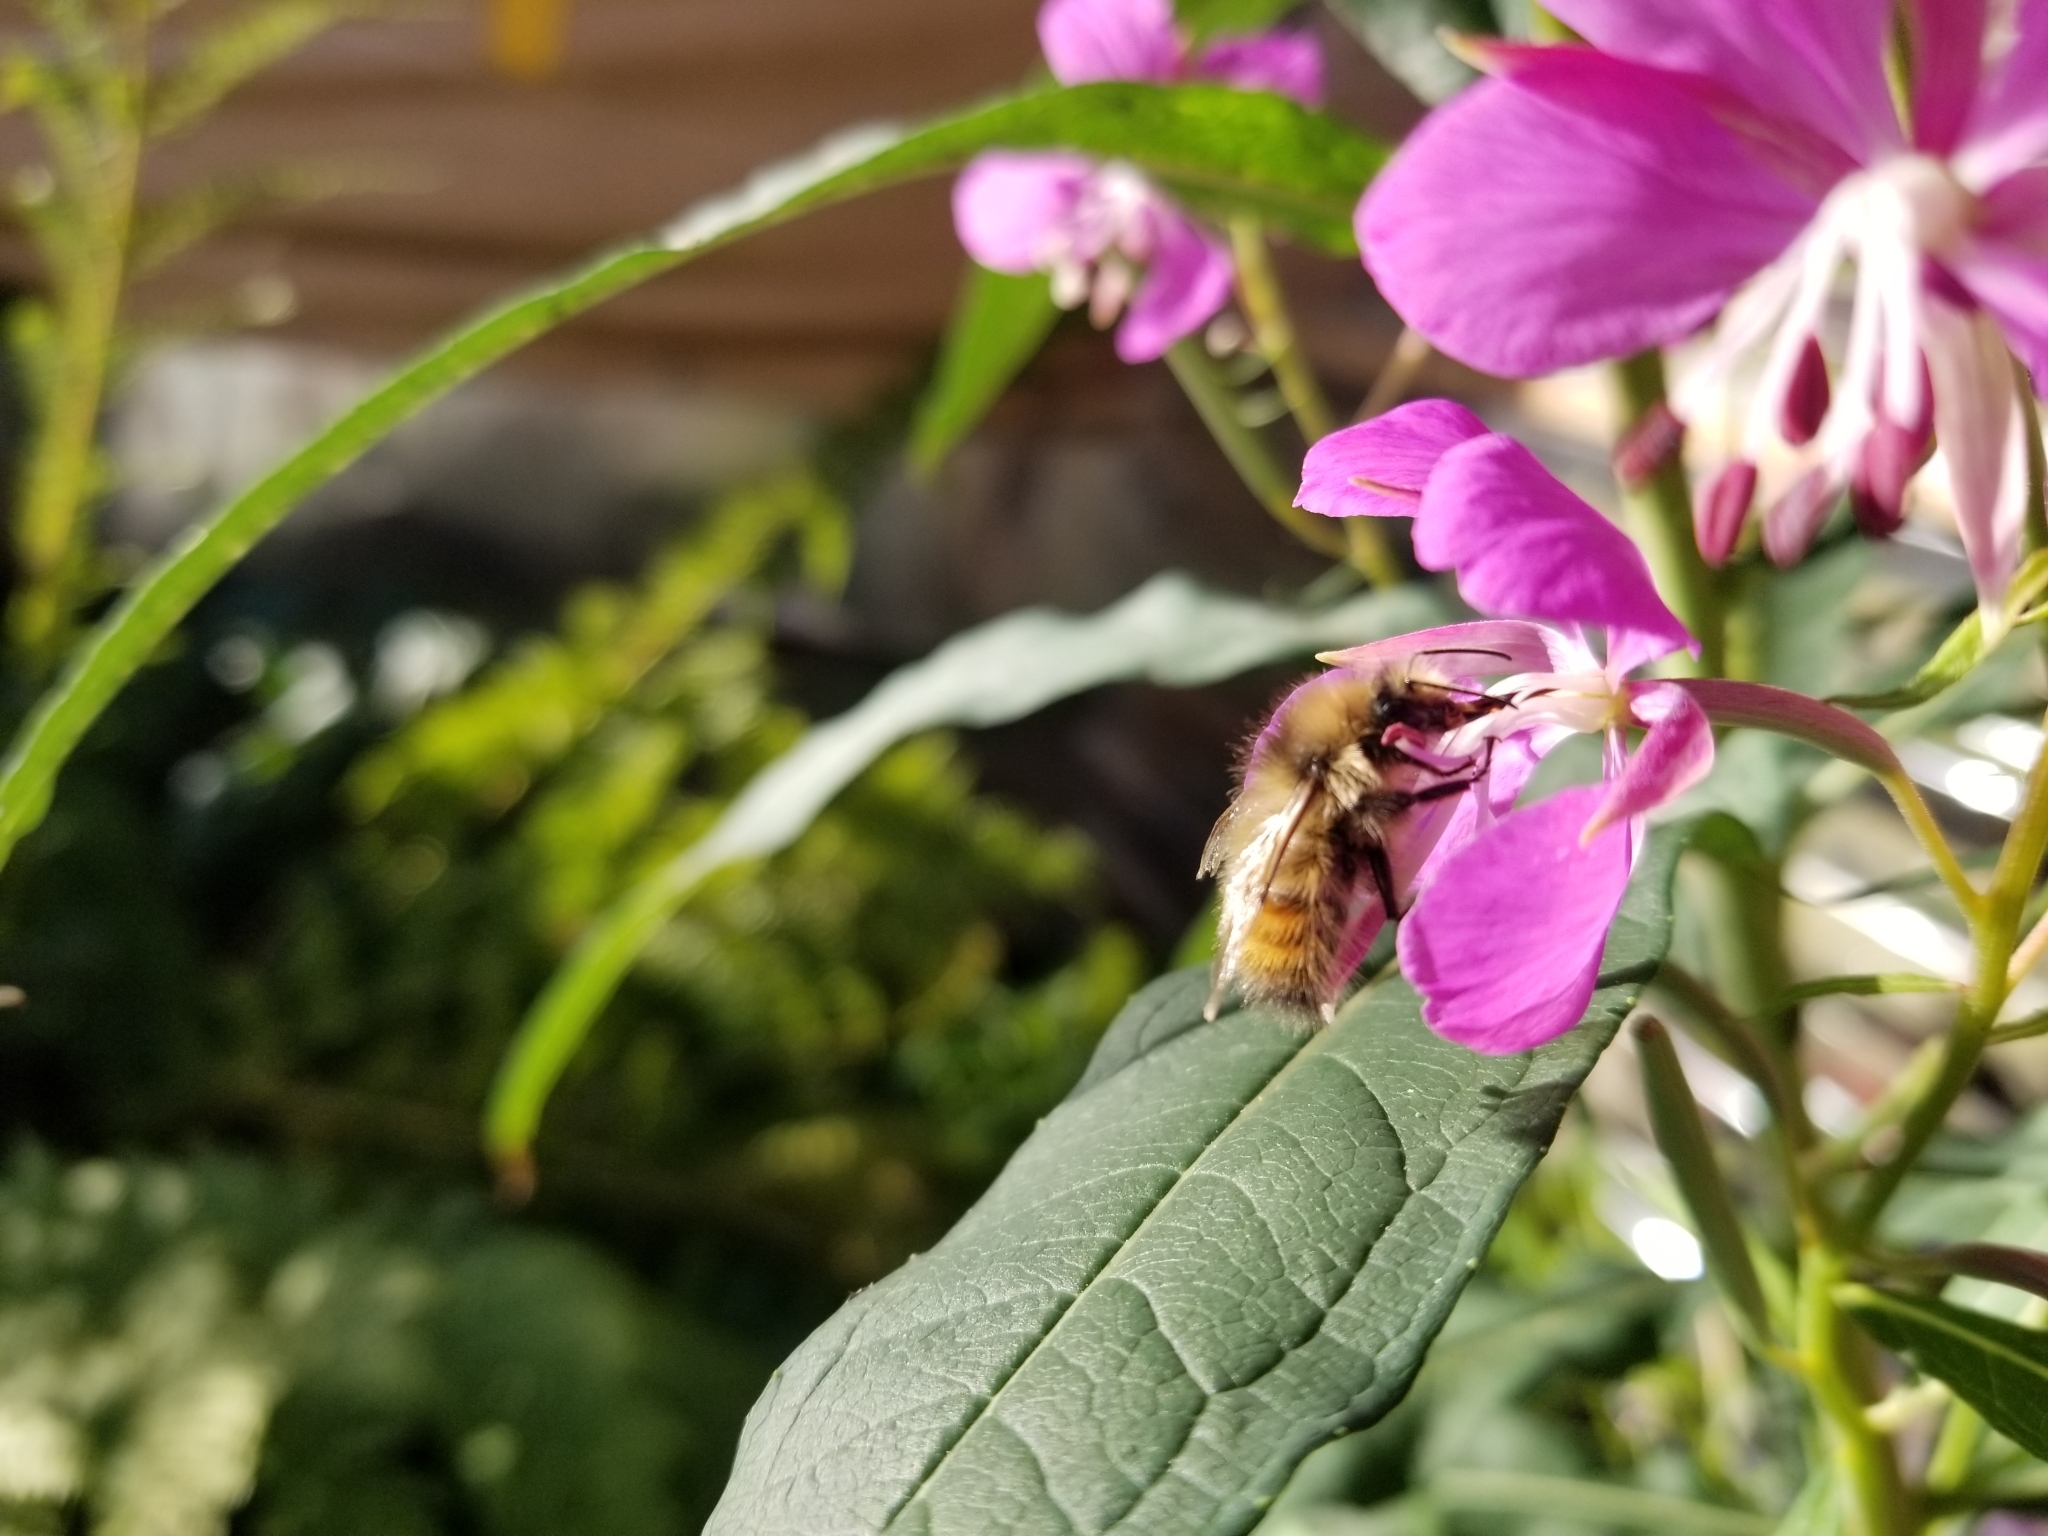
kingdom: Animalia
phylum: Arthropoda
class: Insecta
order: Hymenoptera
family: Apidae
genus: Bombus
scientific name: Bombus flavifrons
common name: Yellow head bumble bee
